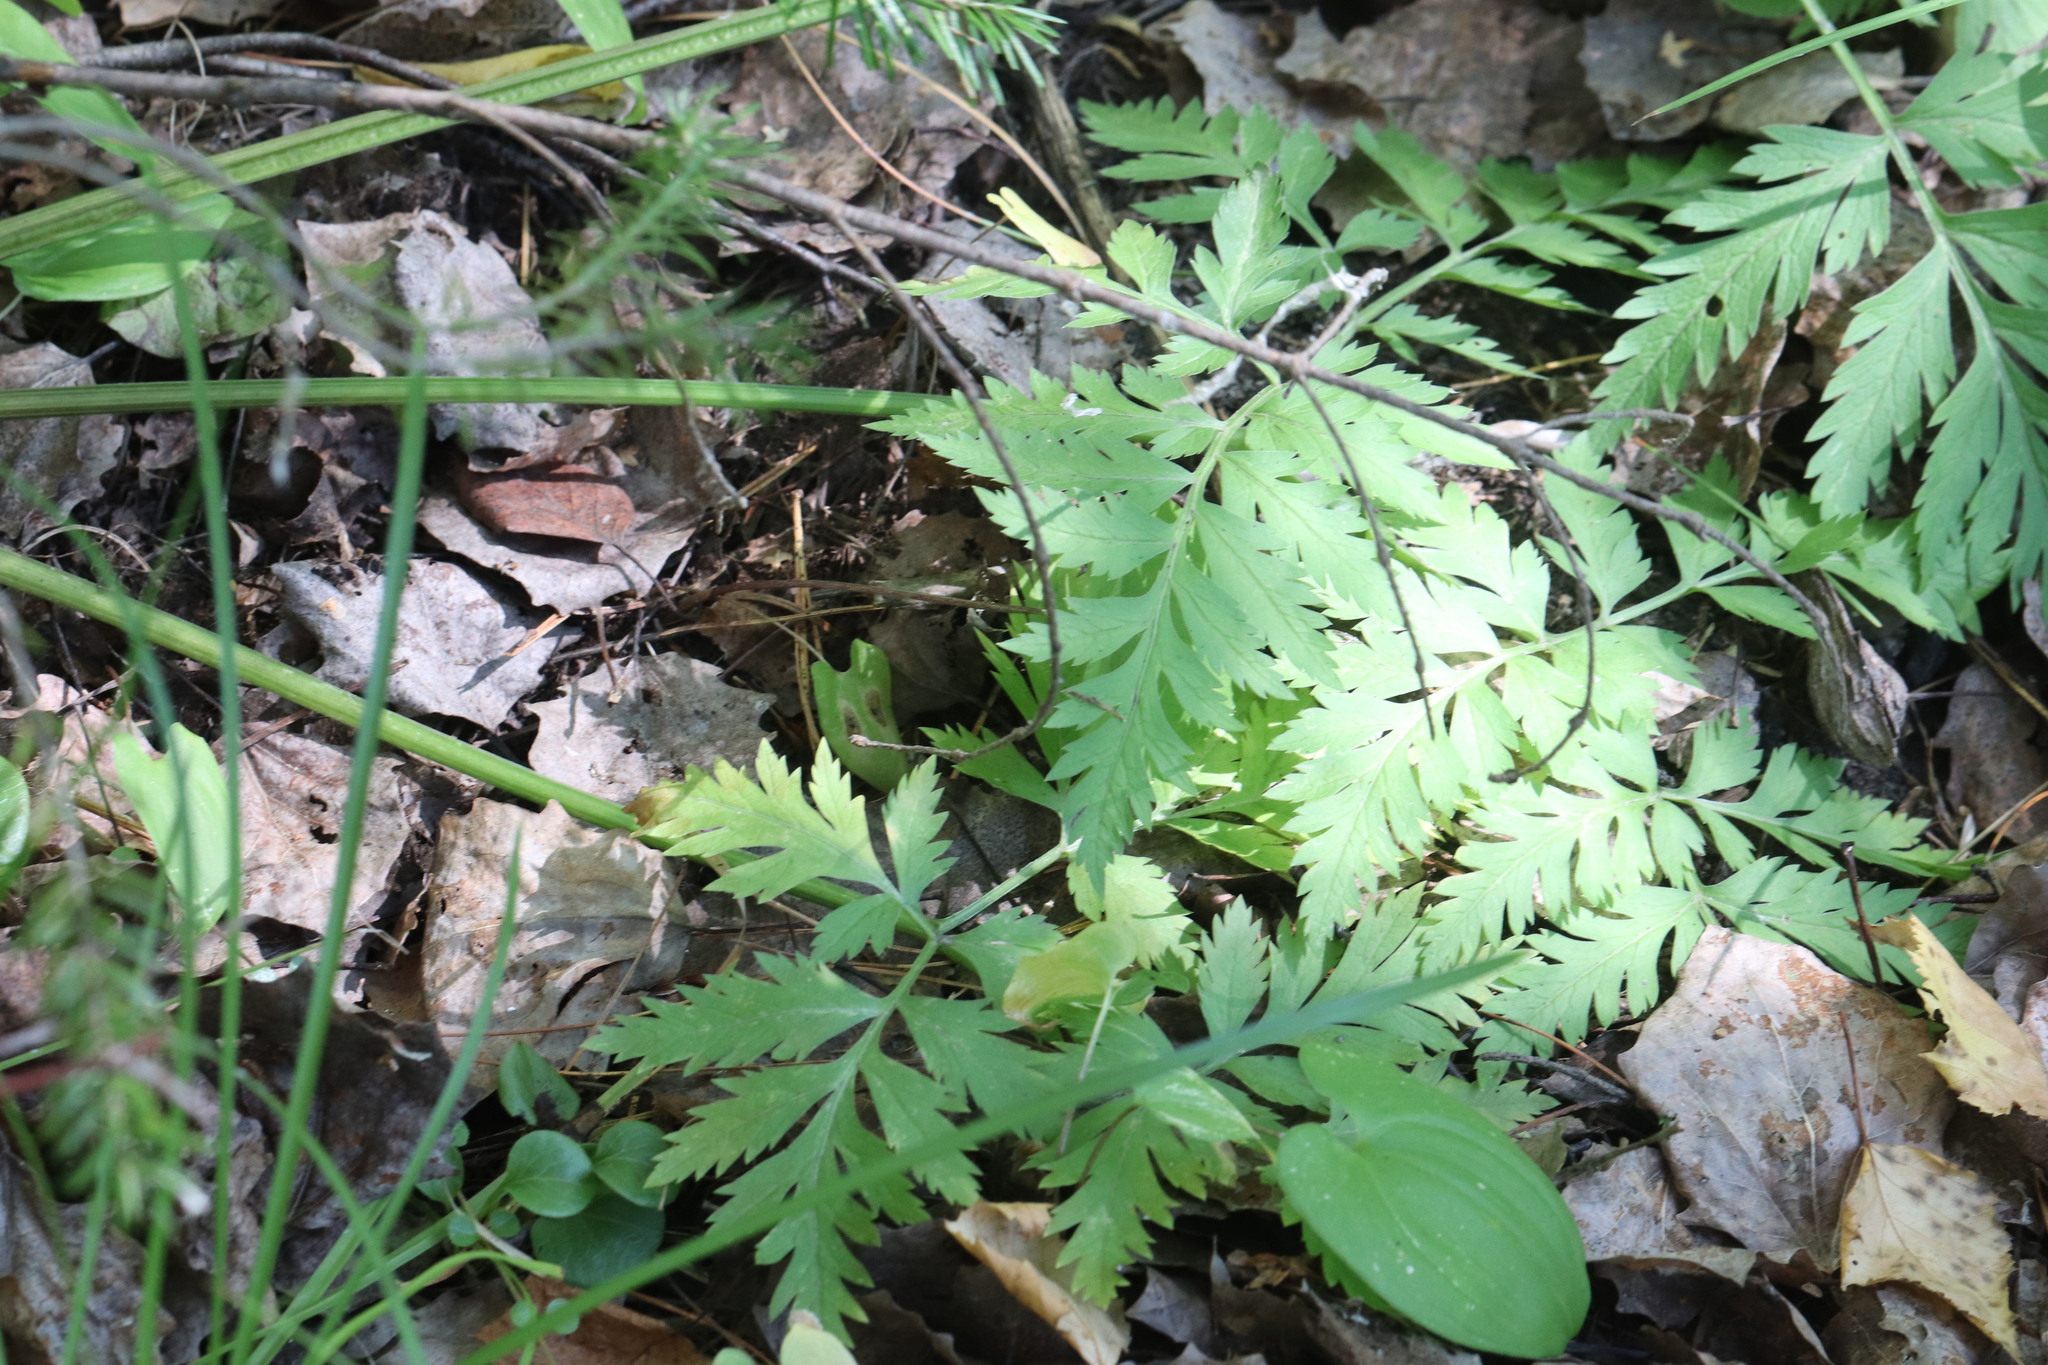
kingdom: Plantae
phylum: Tracheophyta
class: Magnoliopsida
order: Apiales
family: Apiaceae
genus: Pleurospermum
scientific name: Pleurospermum uralense
